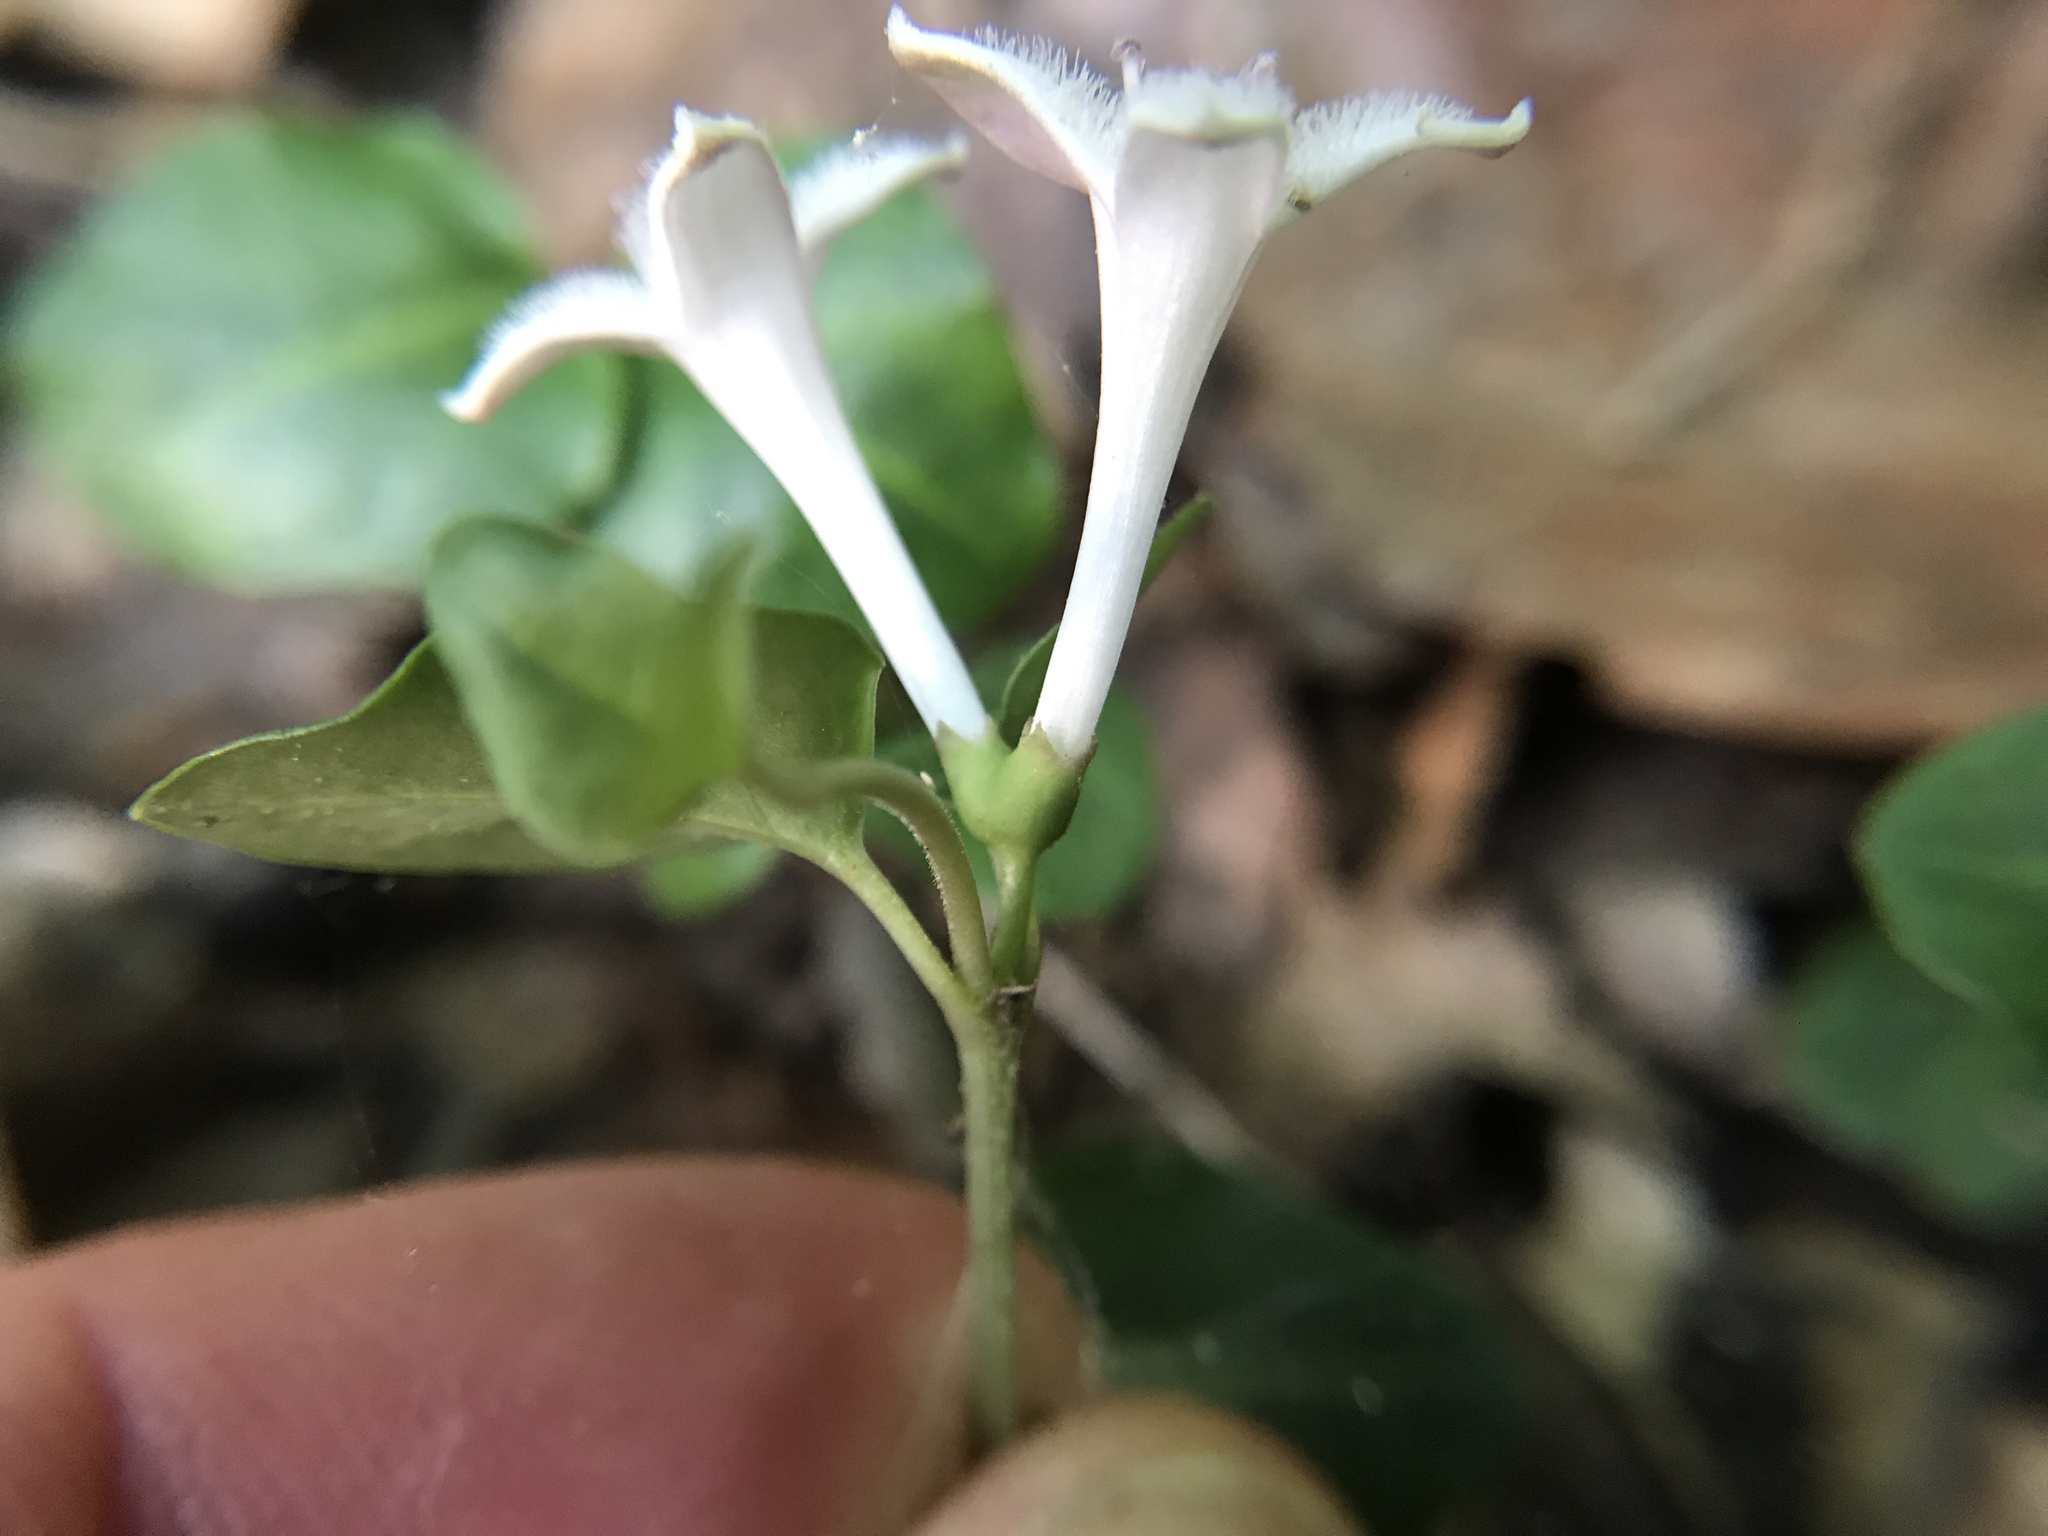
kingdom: Plantae
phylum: Tracheophyta
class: Magnoliopsida
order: Gentianales
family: Rubiaceae
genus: Mitchella
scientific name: Mitchella repens
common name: Partridge-berry
